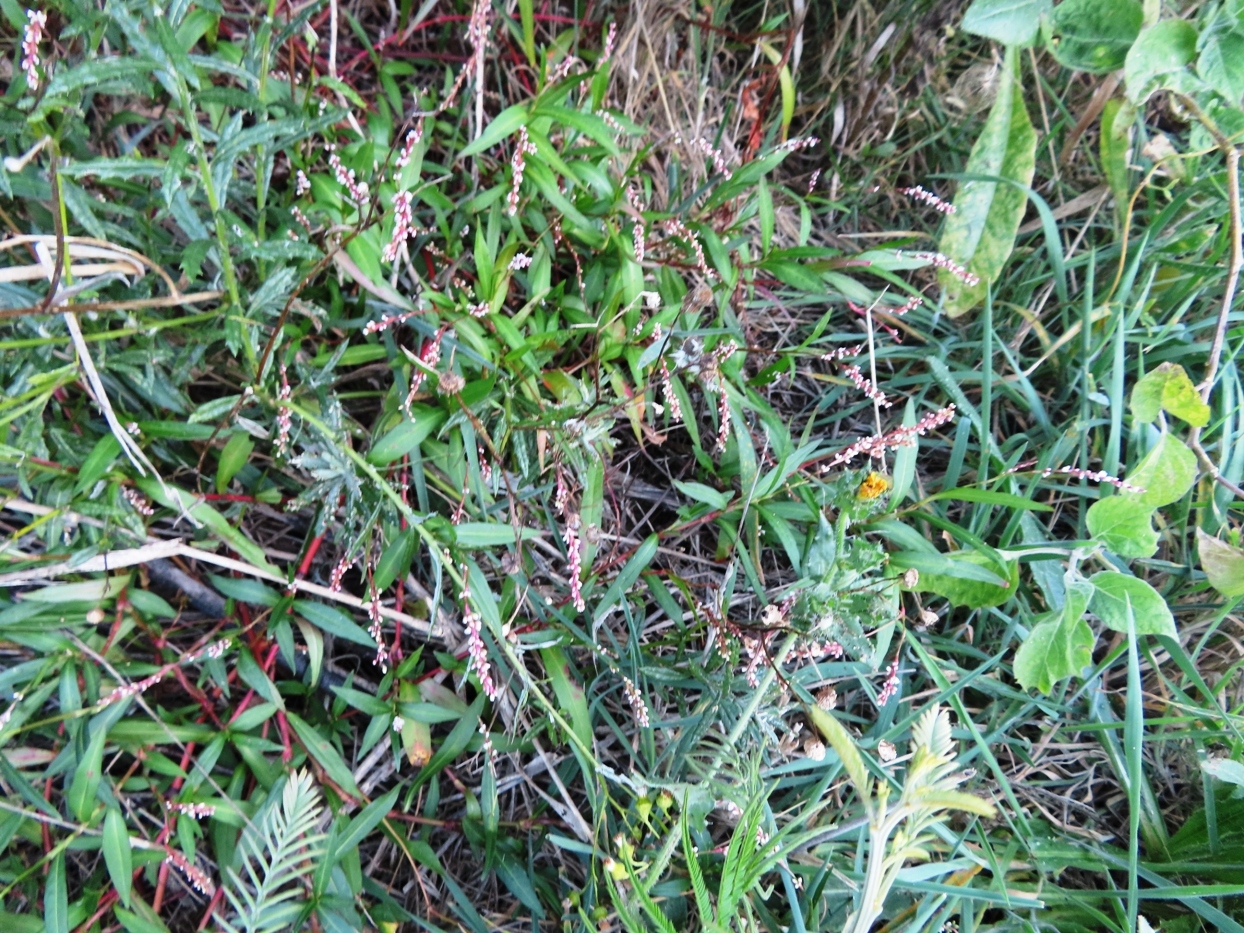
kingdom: Plantae
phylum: Tracheophyta
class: Magnoliopsida
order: Caryophyllales
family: Polygonaceae
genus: Persicaria
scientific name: Persicaria decipiens
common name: Willow-weed
